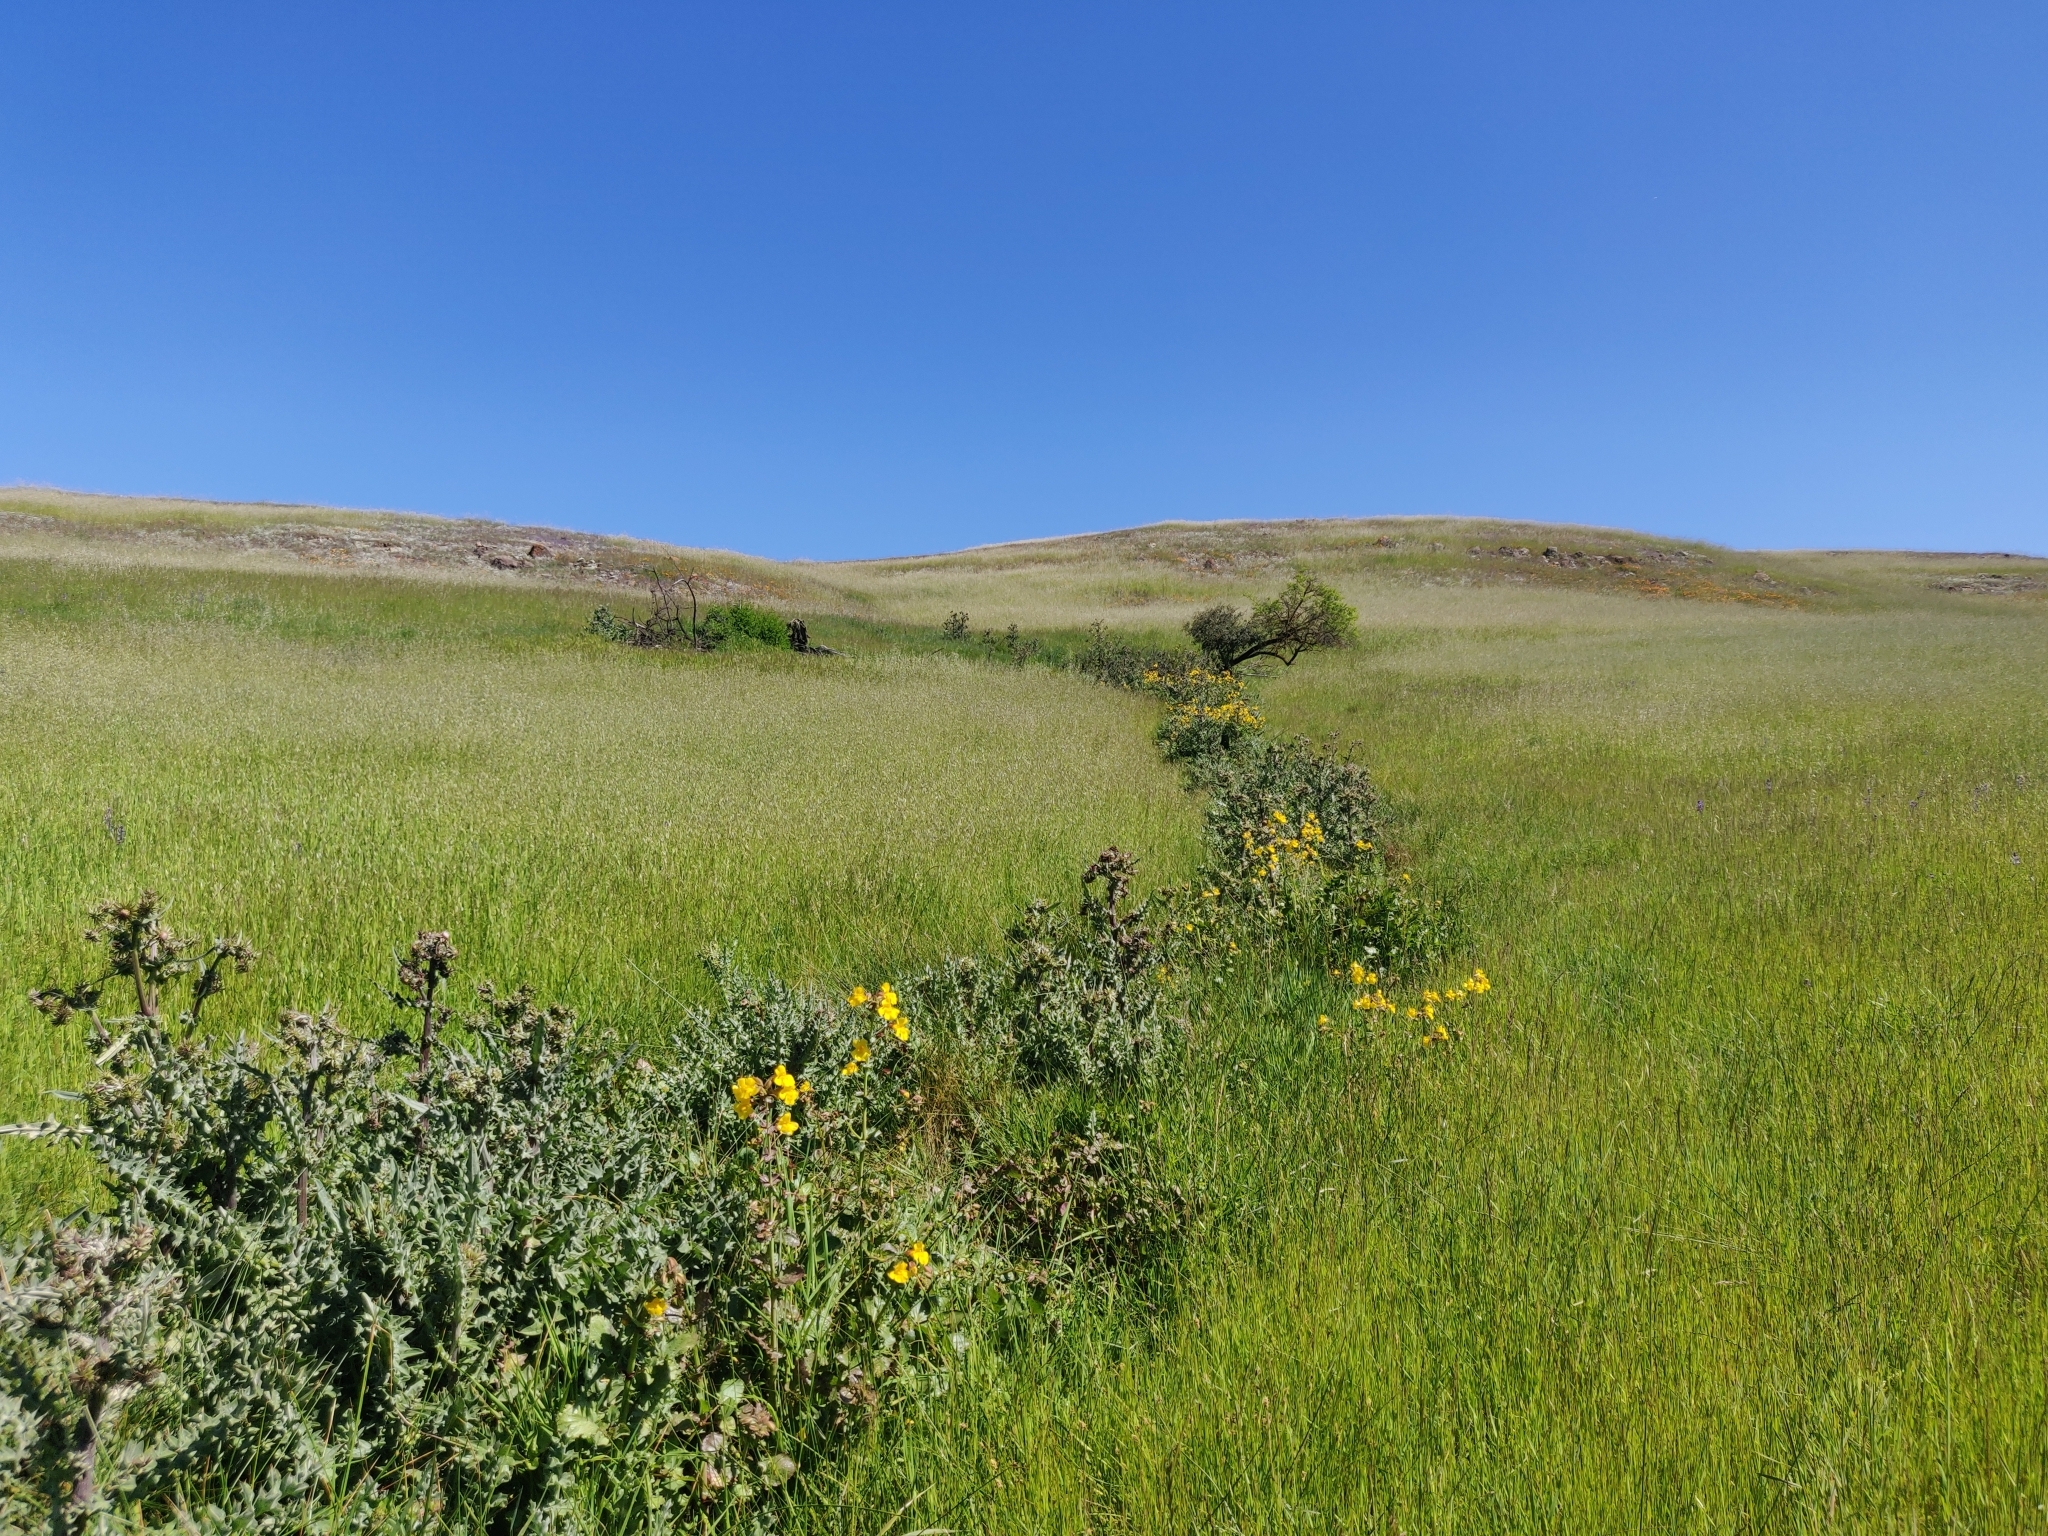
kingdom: Plantae
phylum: Tracheophyta
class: Magnoliopsida
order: Asterales
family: Asteraceae
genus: Cirsium
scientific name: Cirsium fontinale
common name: Fountain thistle
